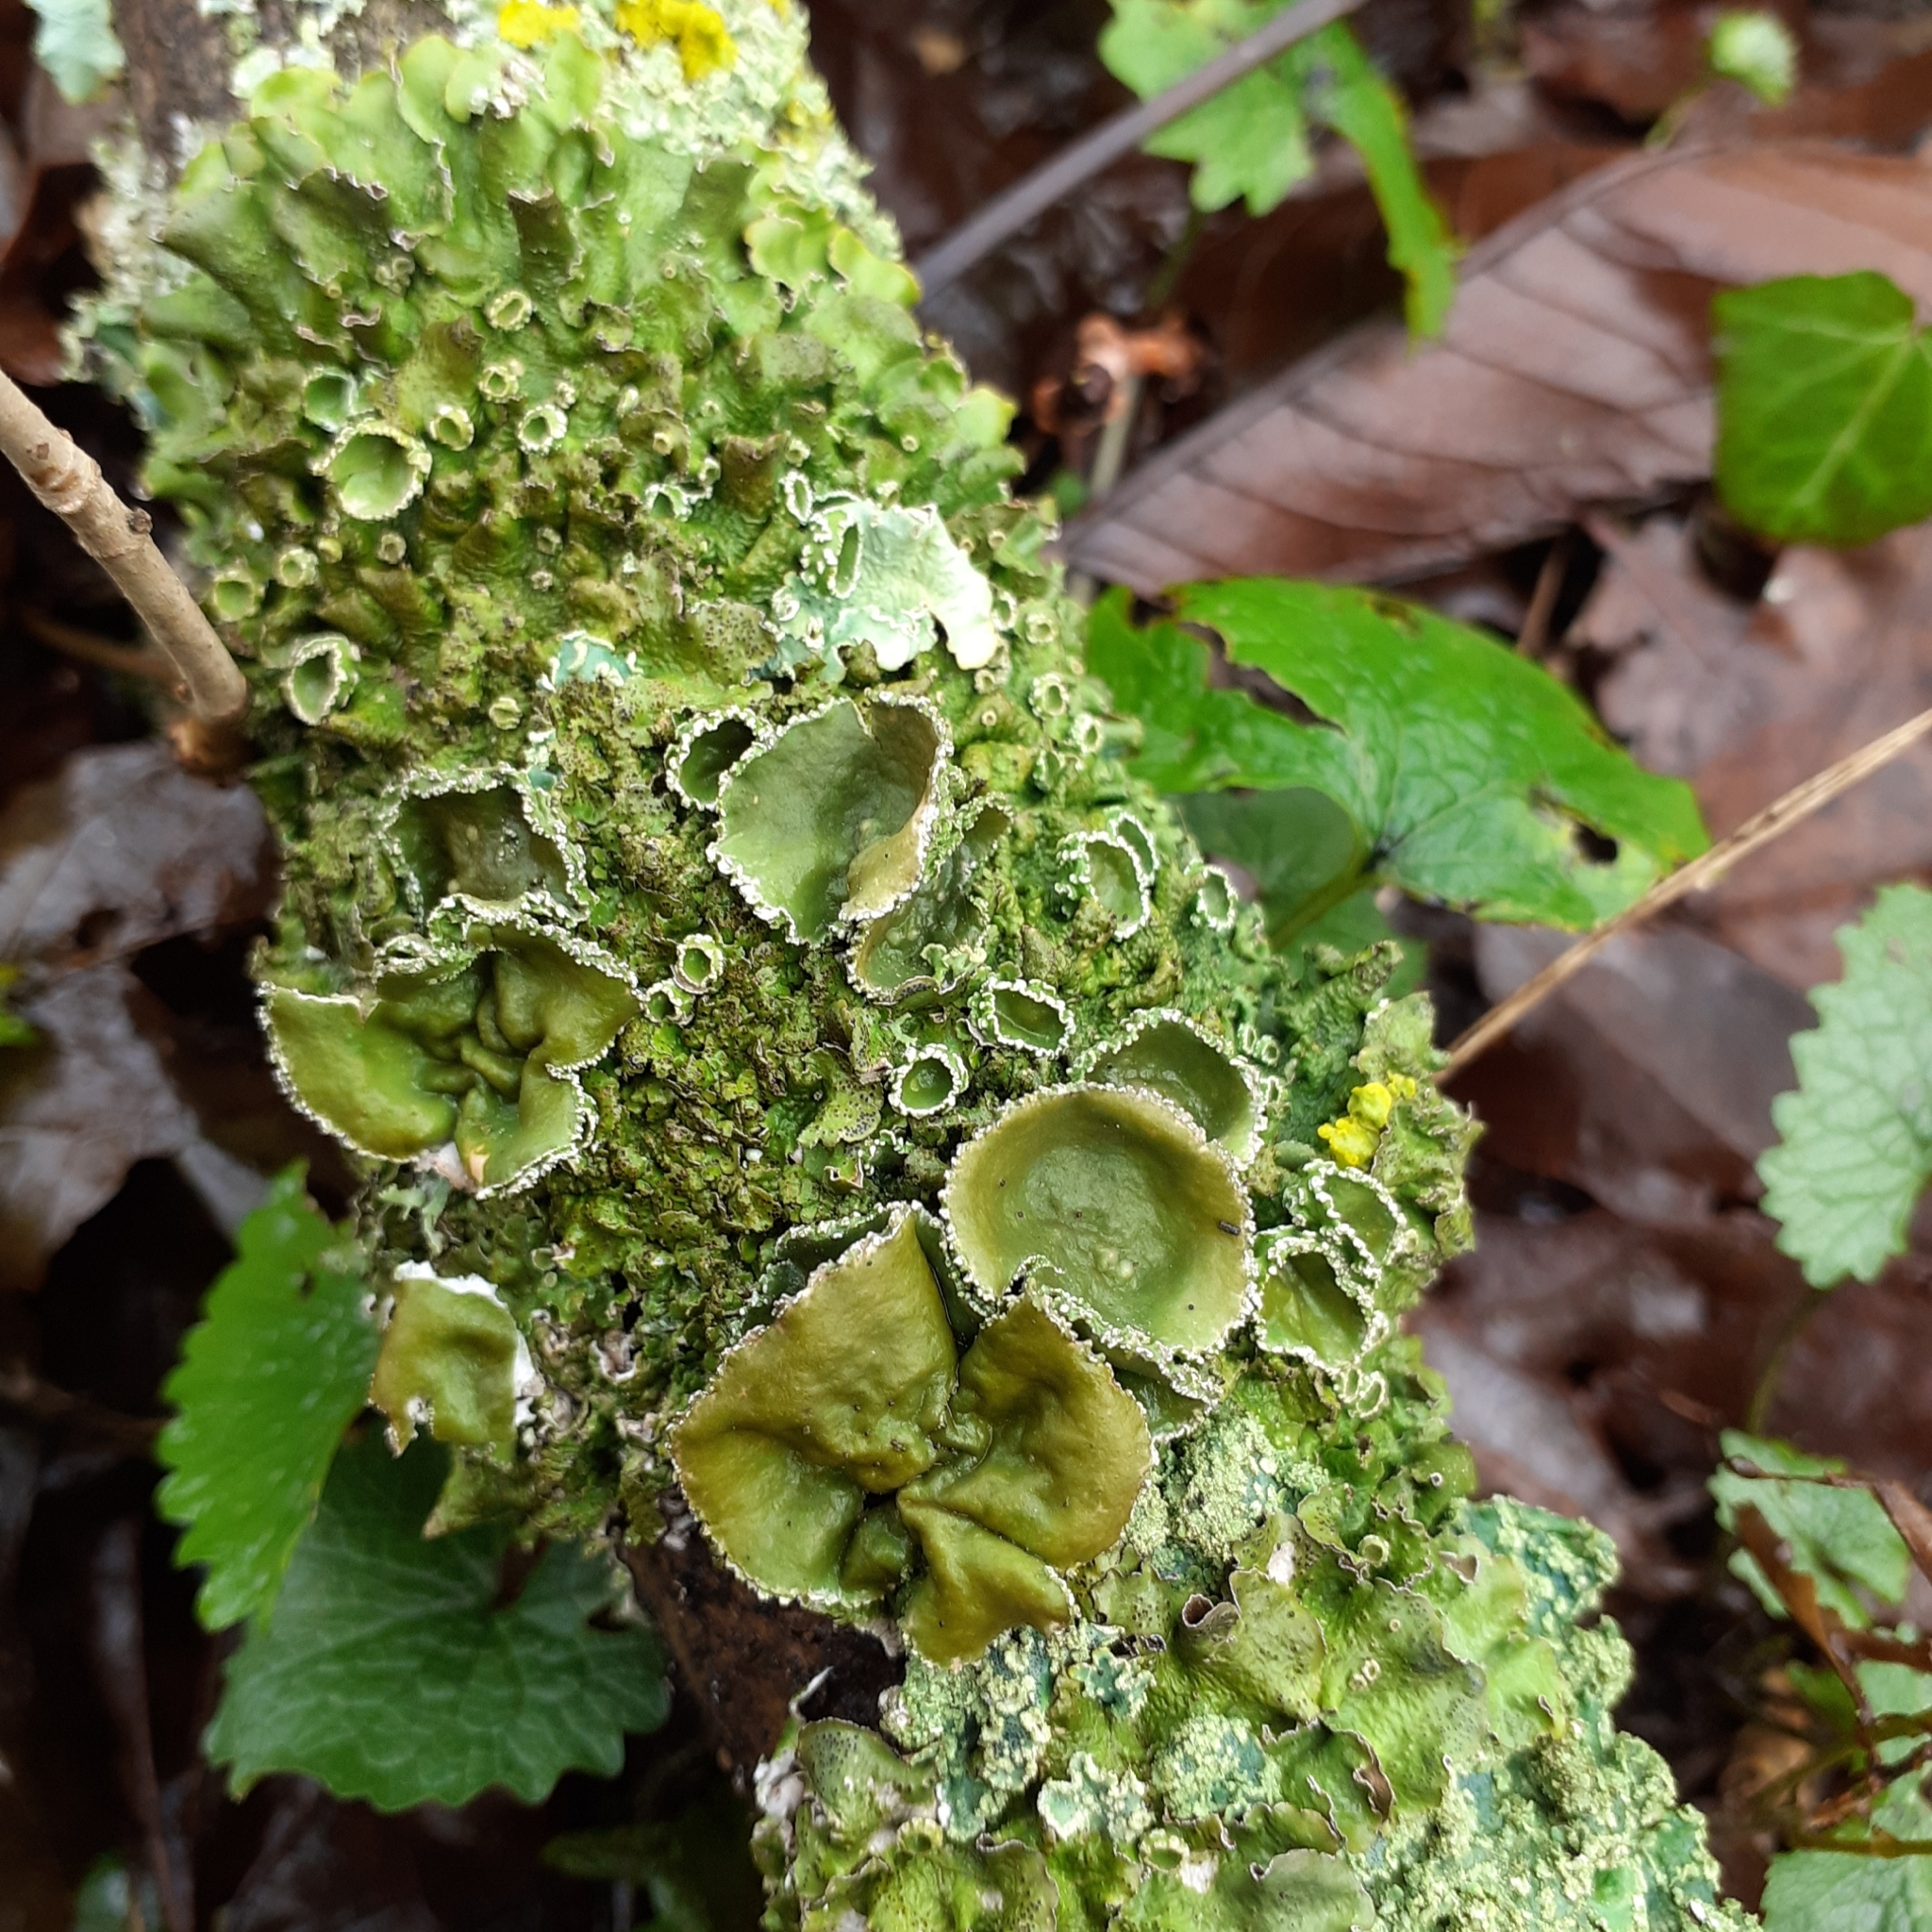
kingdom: Fungi
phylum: Ascomycota
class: Lecanoromycetes
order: Lecanorales
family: Parmeliaceae
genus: Pleurosticta
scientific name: Pleurosticta acetabulum
